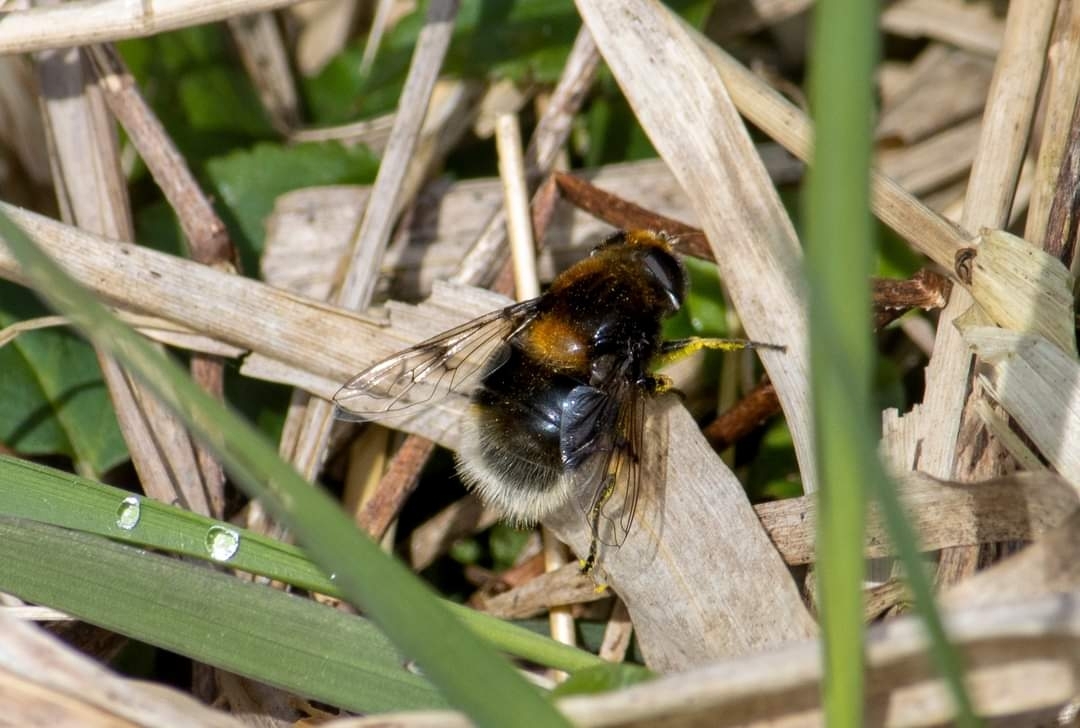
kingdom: Animalia
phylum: Arthropoda
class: Insecta
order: Diptera
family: Syrphidae
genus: Eristalis
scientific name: Eristalis intricaria
